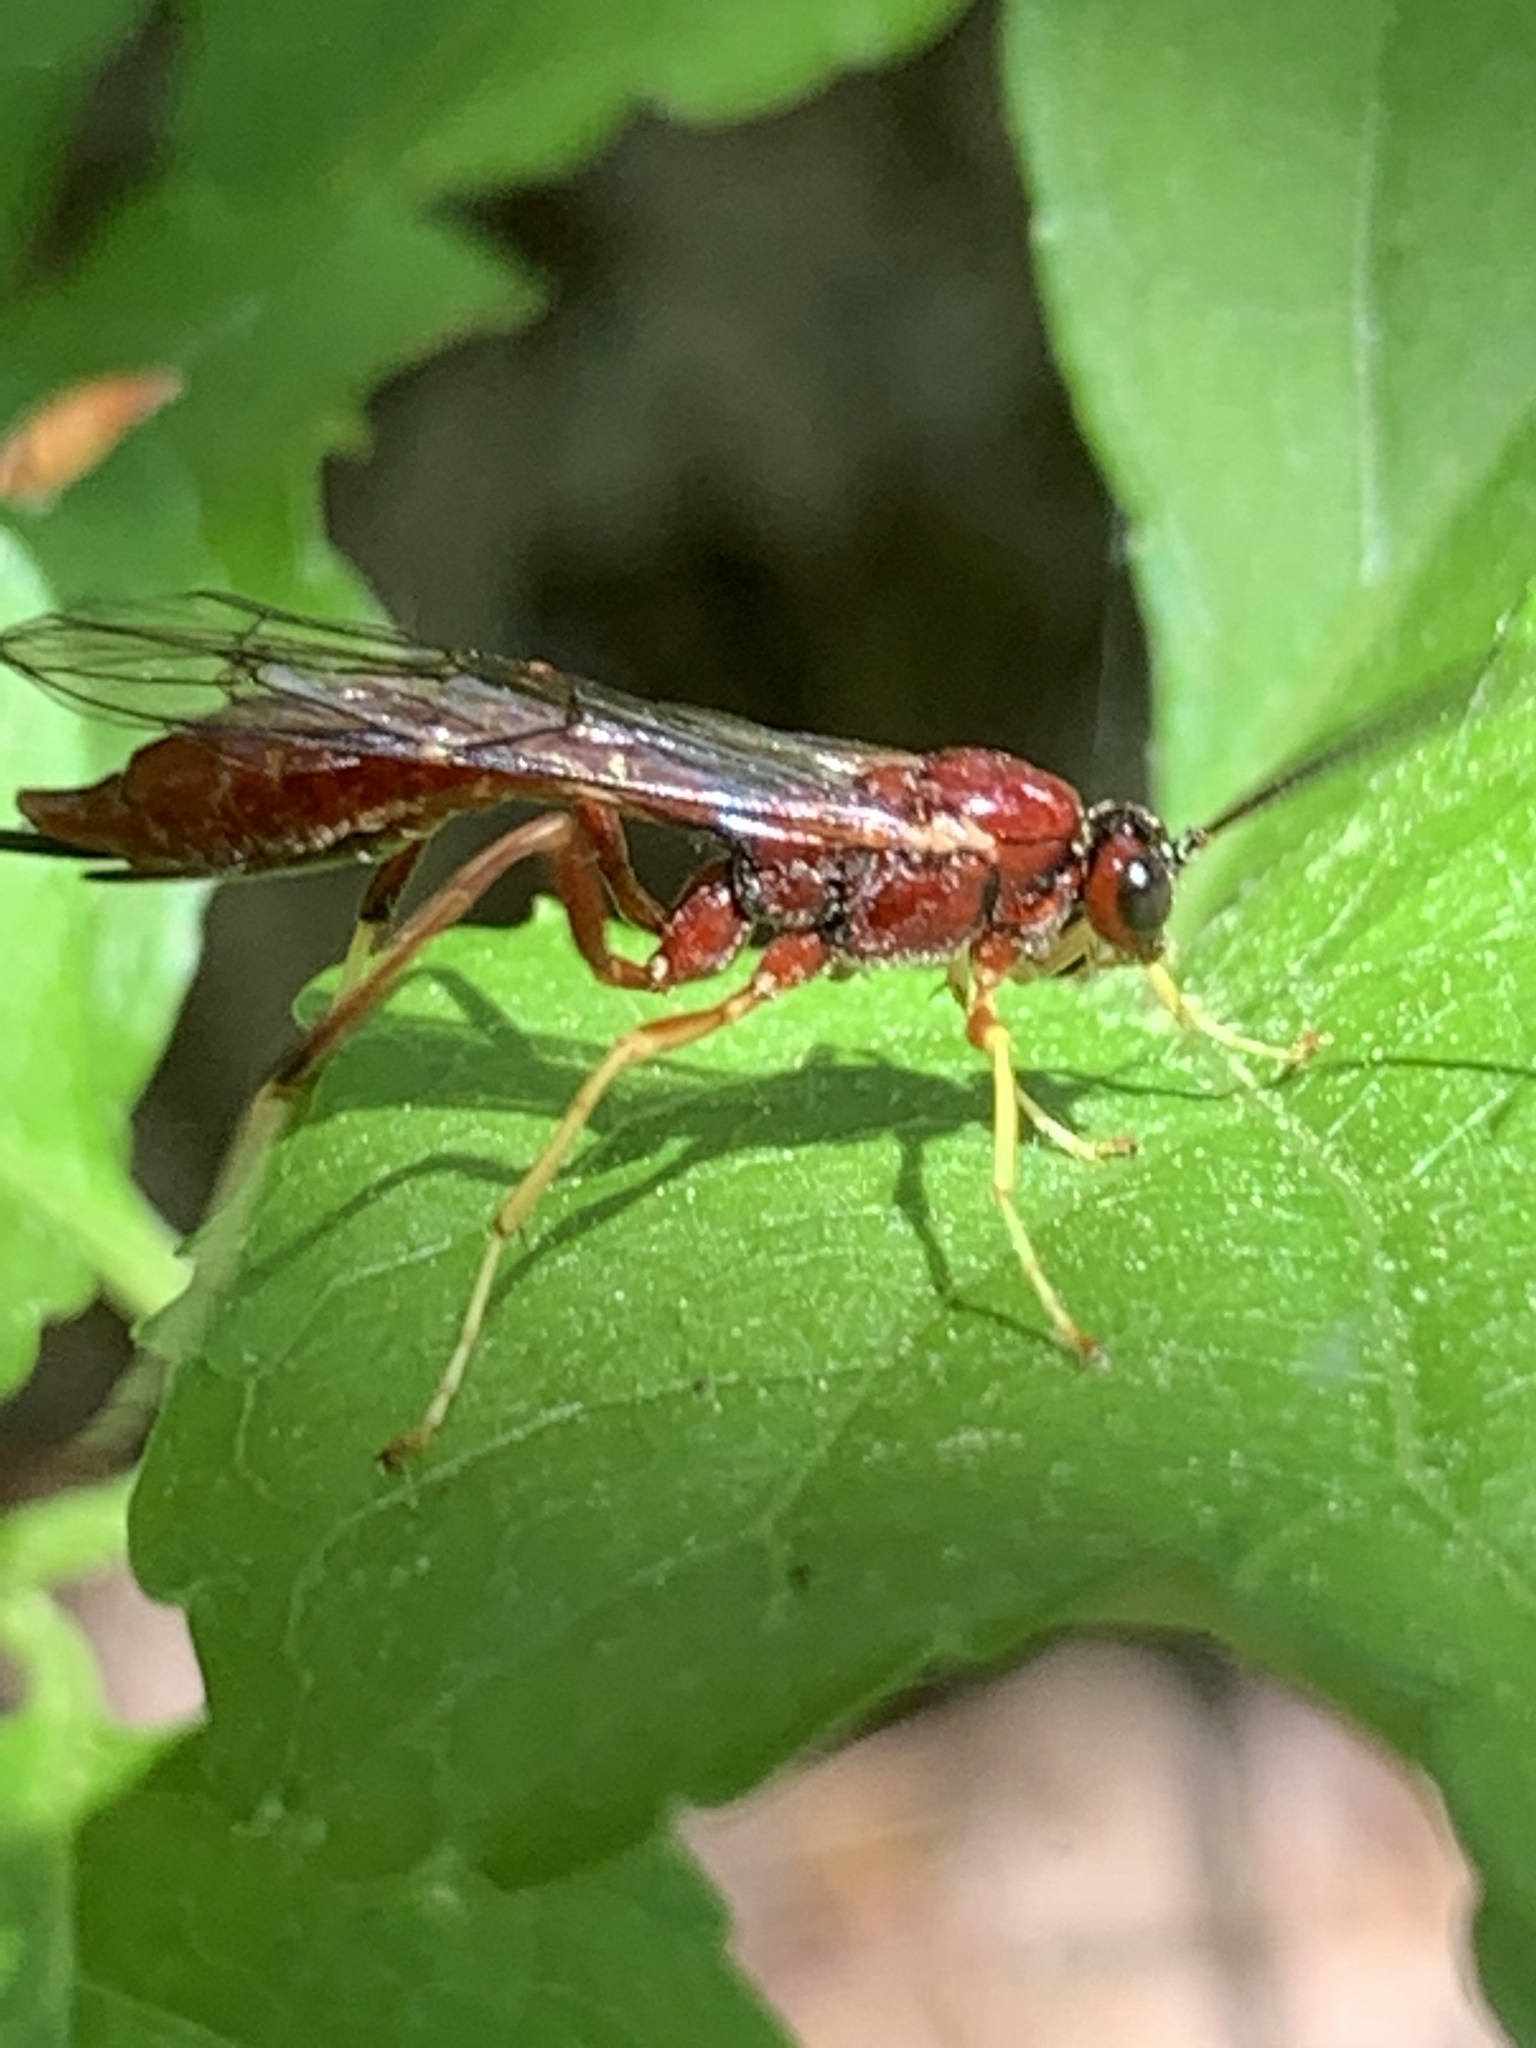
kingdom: Animalia
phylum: Arthropoda
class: Insecta
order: Hymenoptera
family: Ichneumonidae
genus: Coleocentrus
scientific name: Coleocentrus rufus
